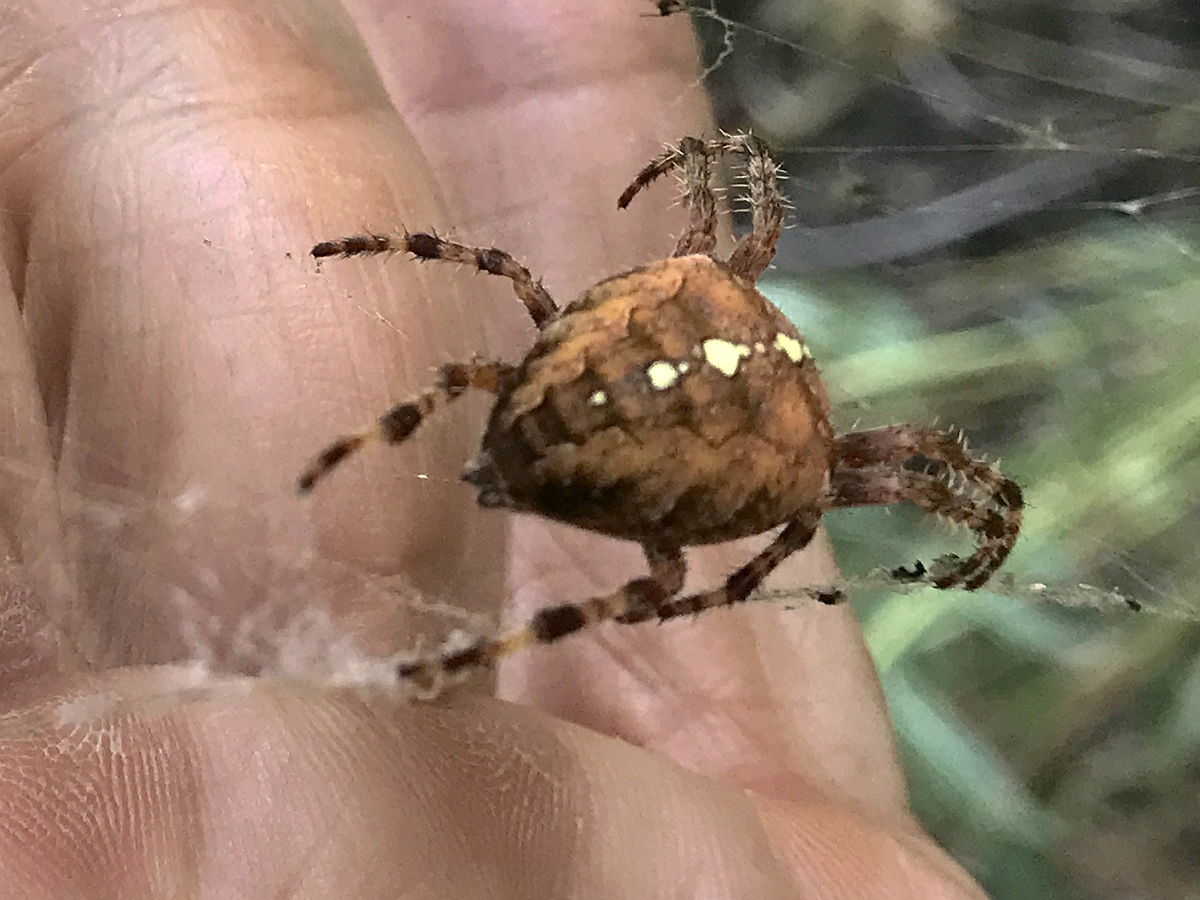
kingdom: Animalia
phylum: Arthropoda
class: Arachnida
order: Araneae
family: Araneidae
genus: Araneus
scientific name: Araneus diadematus
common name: Cross orbweaver
